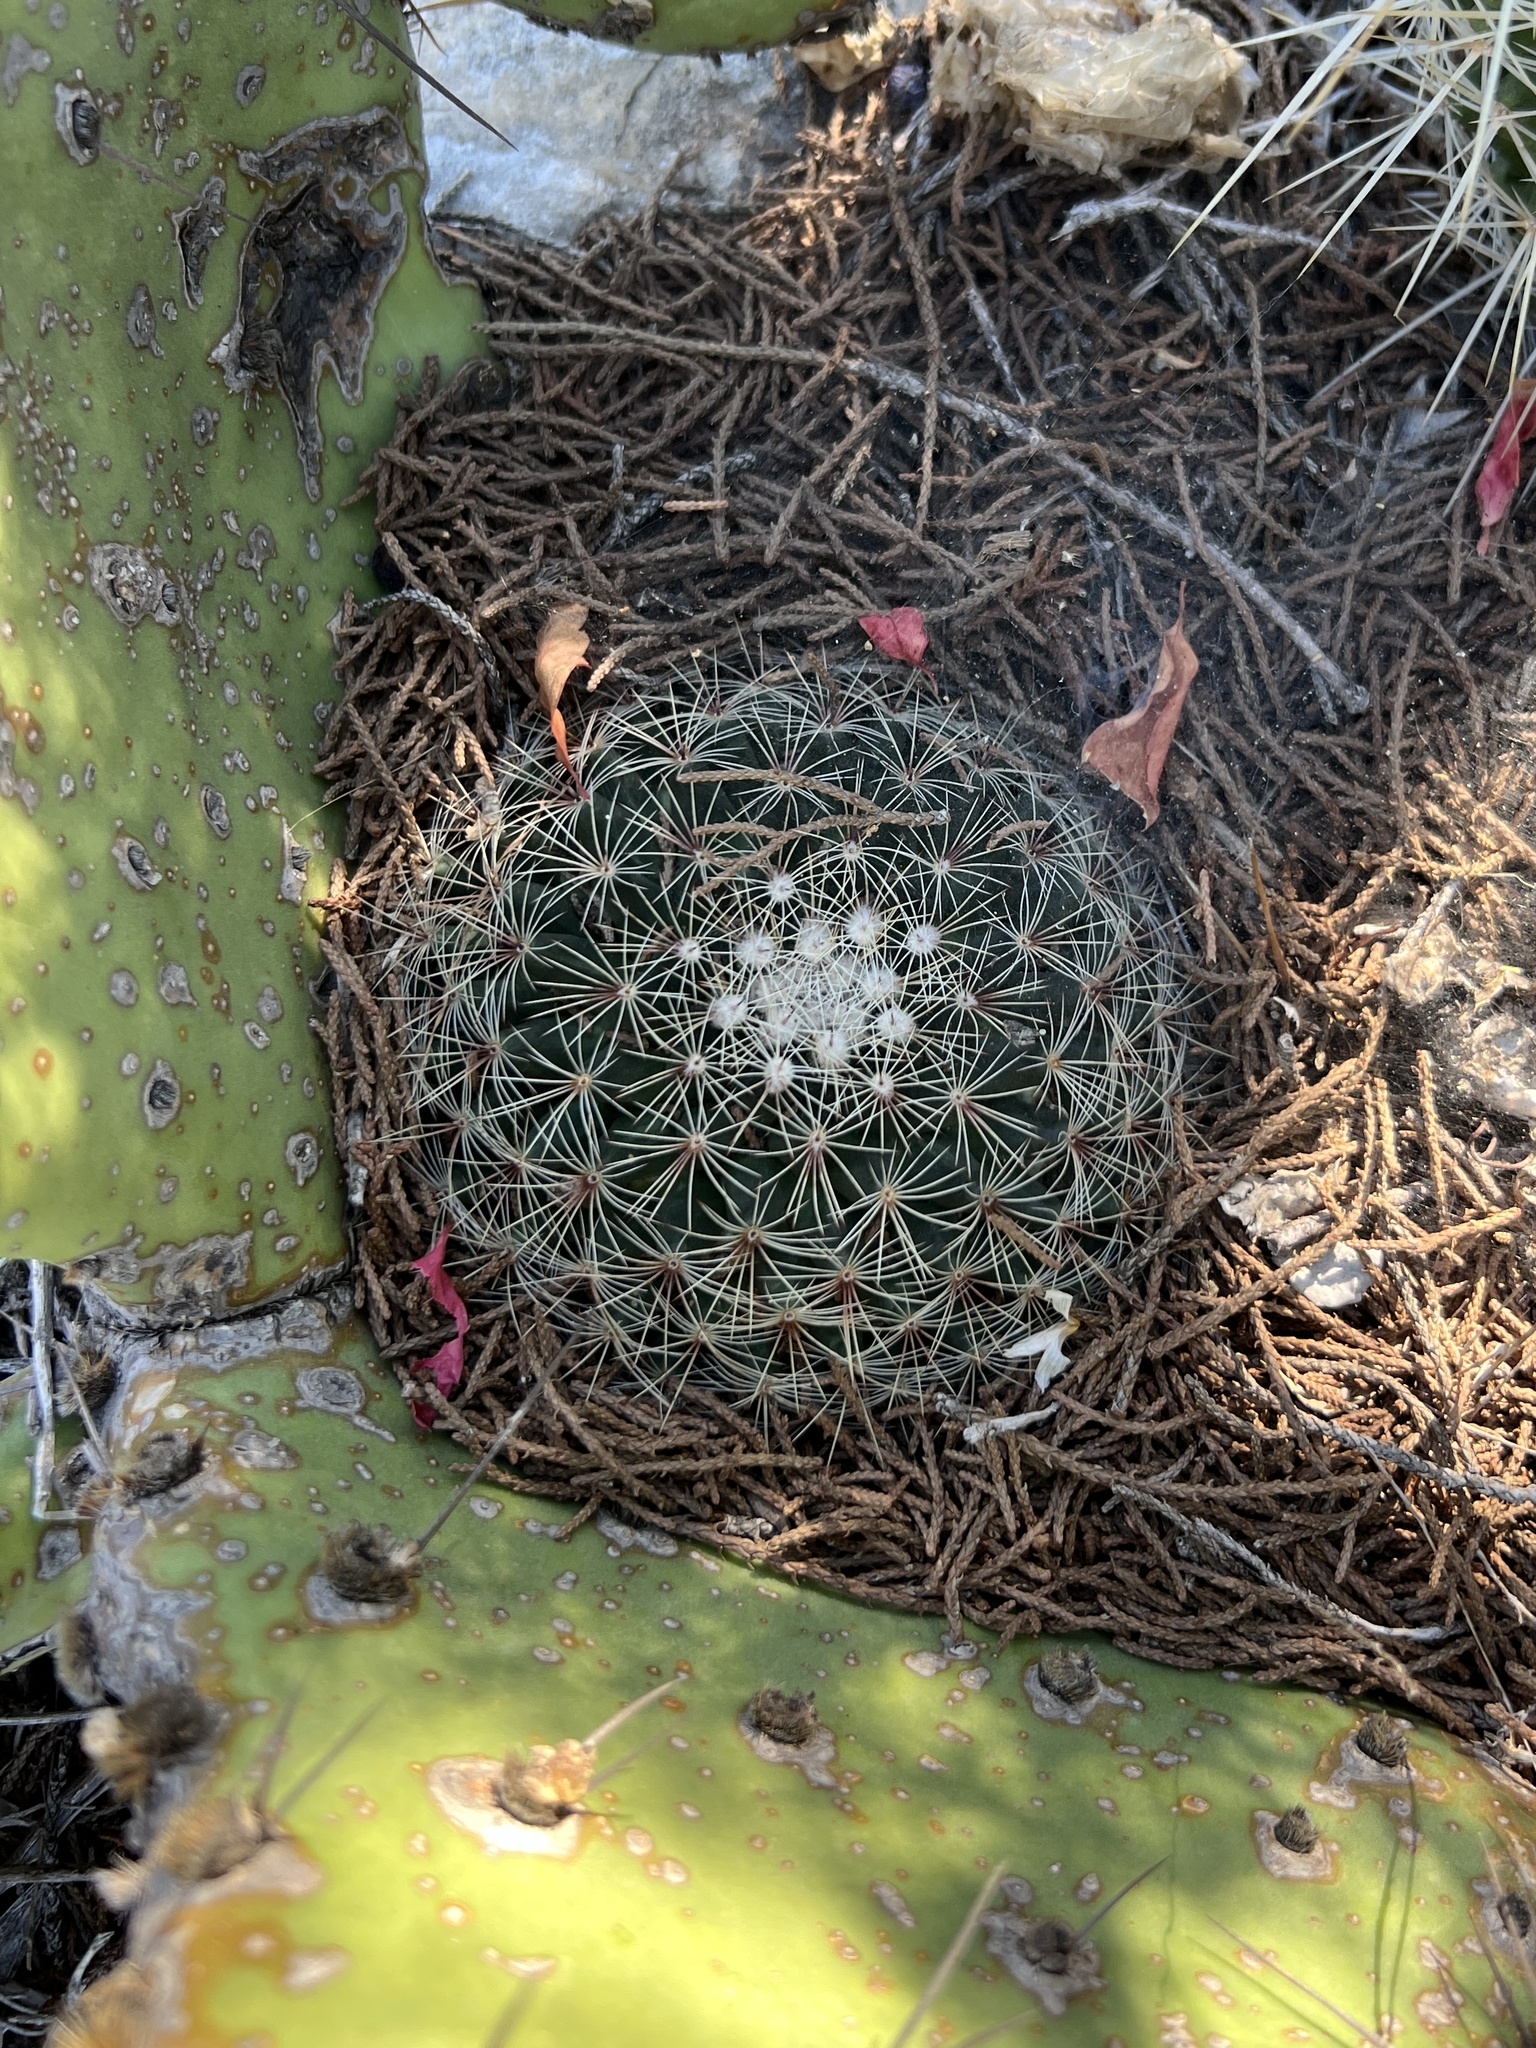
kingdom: Plantae
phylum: Tracheophyta
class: Magnoliopsida
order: Caryophyllales
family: Cactaceae
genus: Mammillaria
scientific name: Mammillaria heyderi
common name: Little nipple cactus
